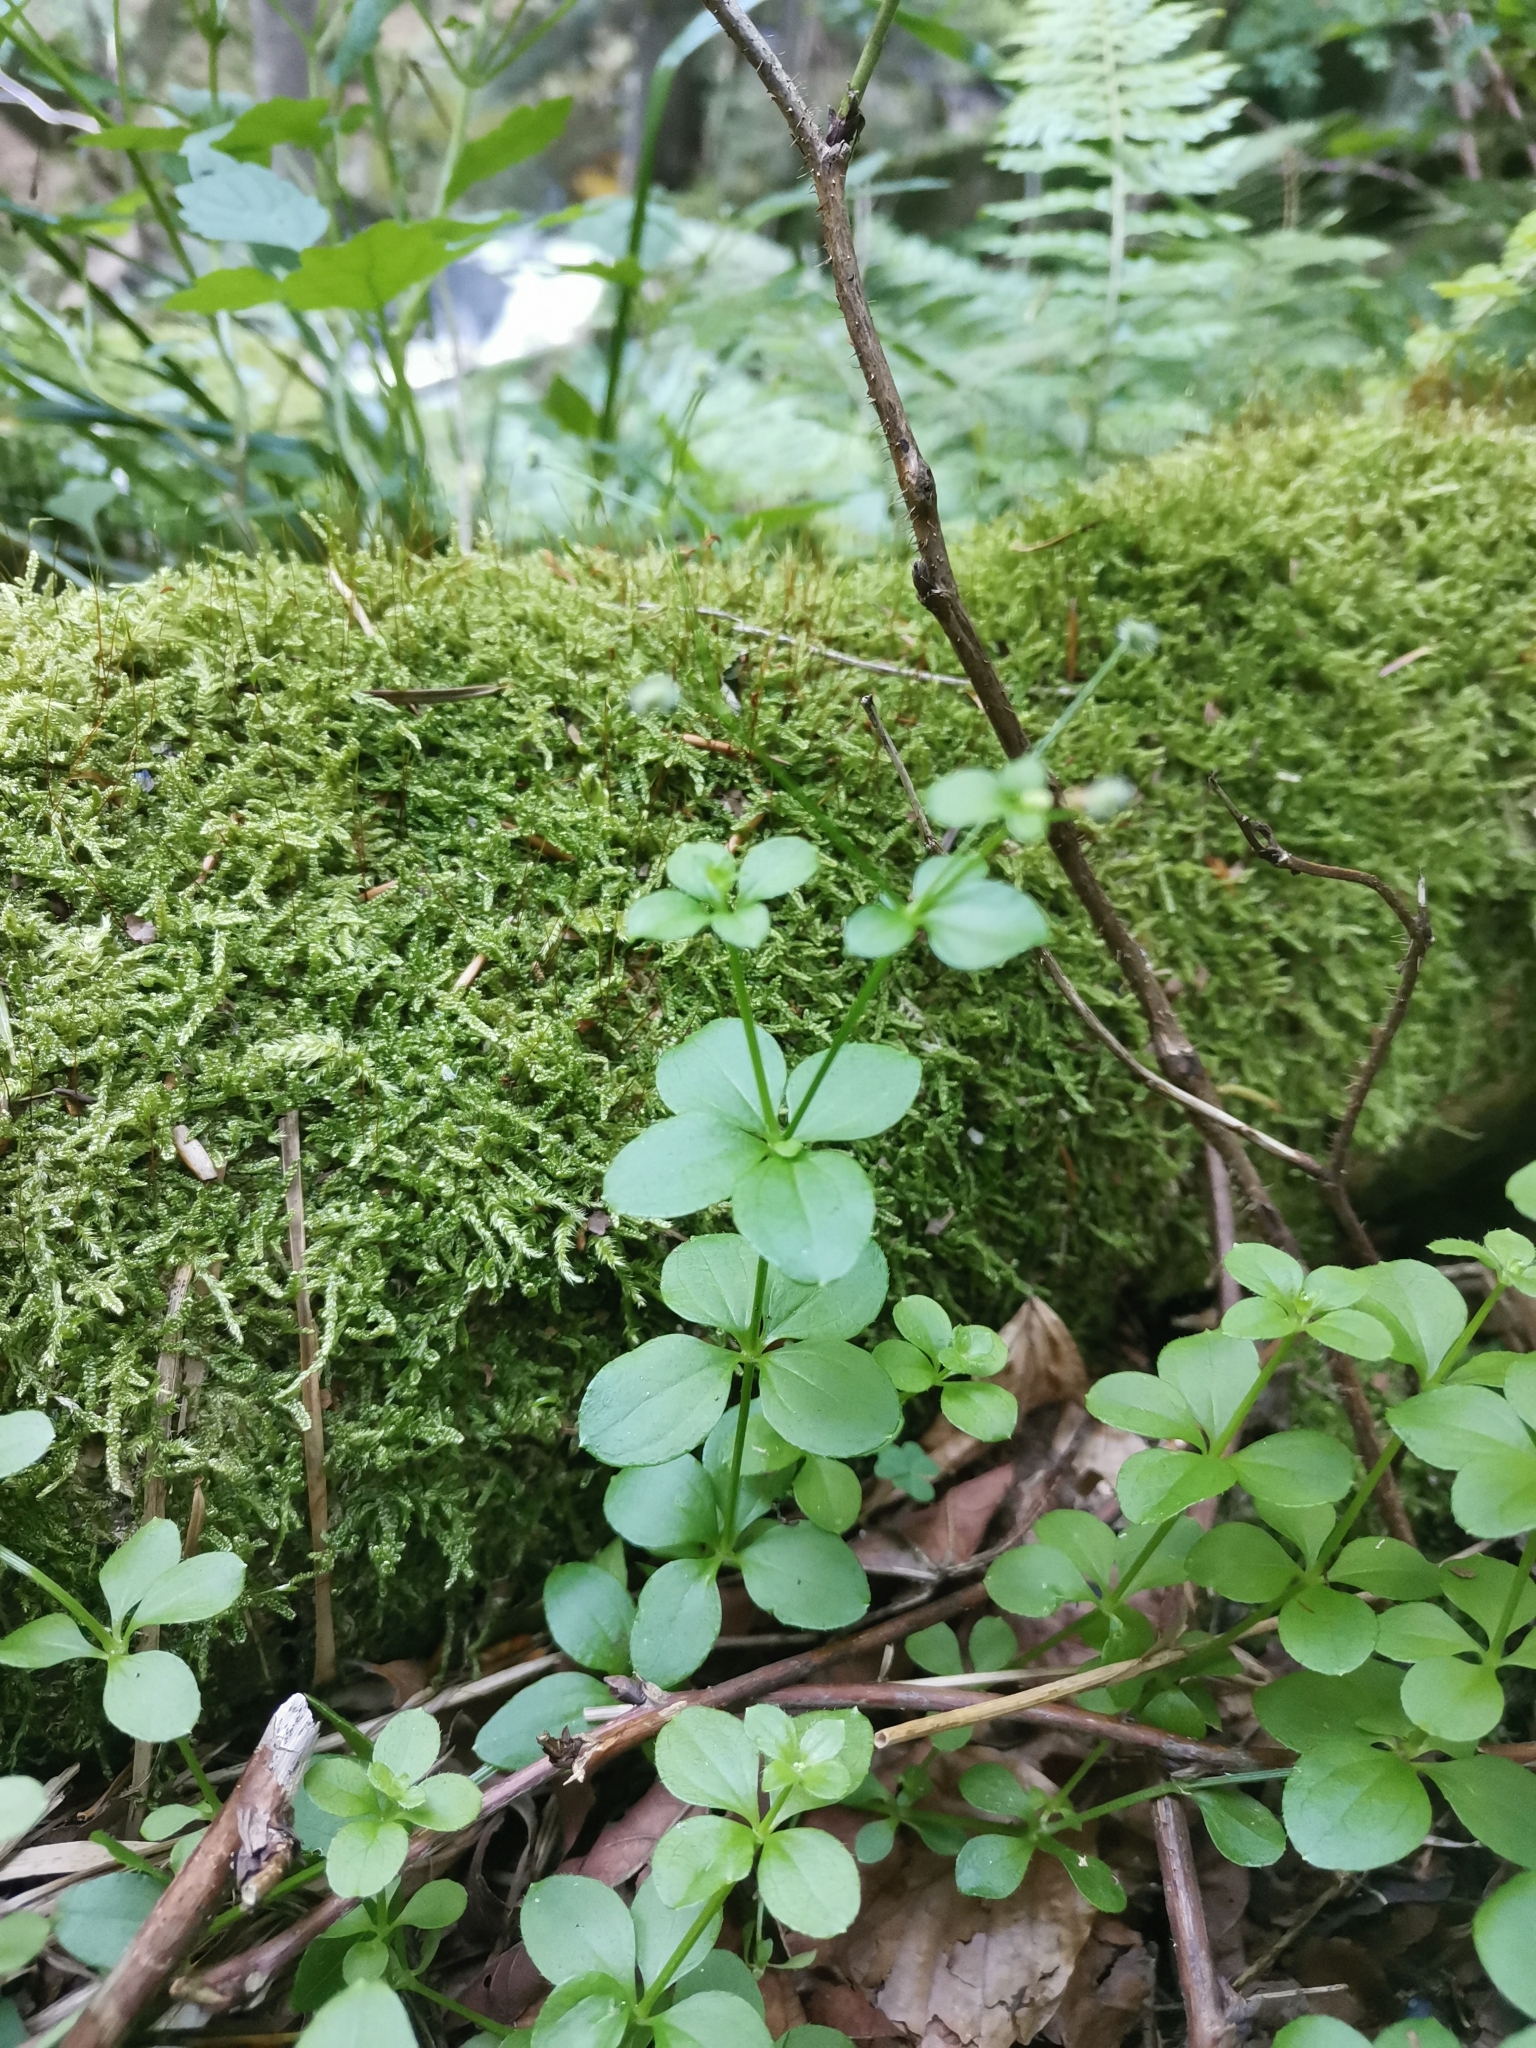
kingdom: Plantae
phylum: Tracheophyta
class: Magnoliopsida
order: Gentianales
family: Rubiaceae
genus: Galium
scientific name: Galium rotundifolium
